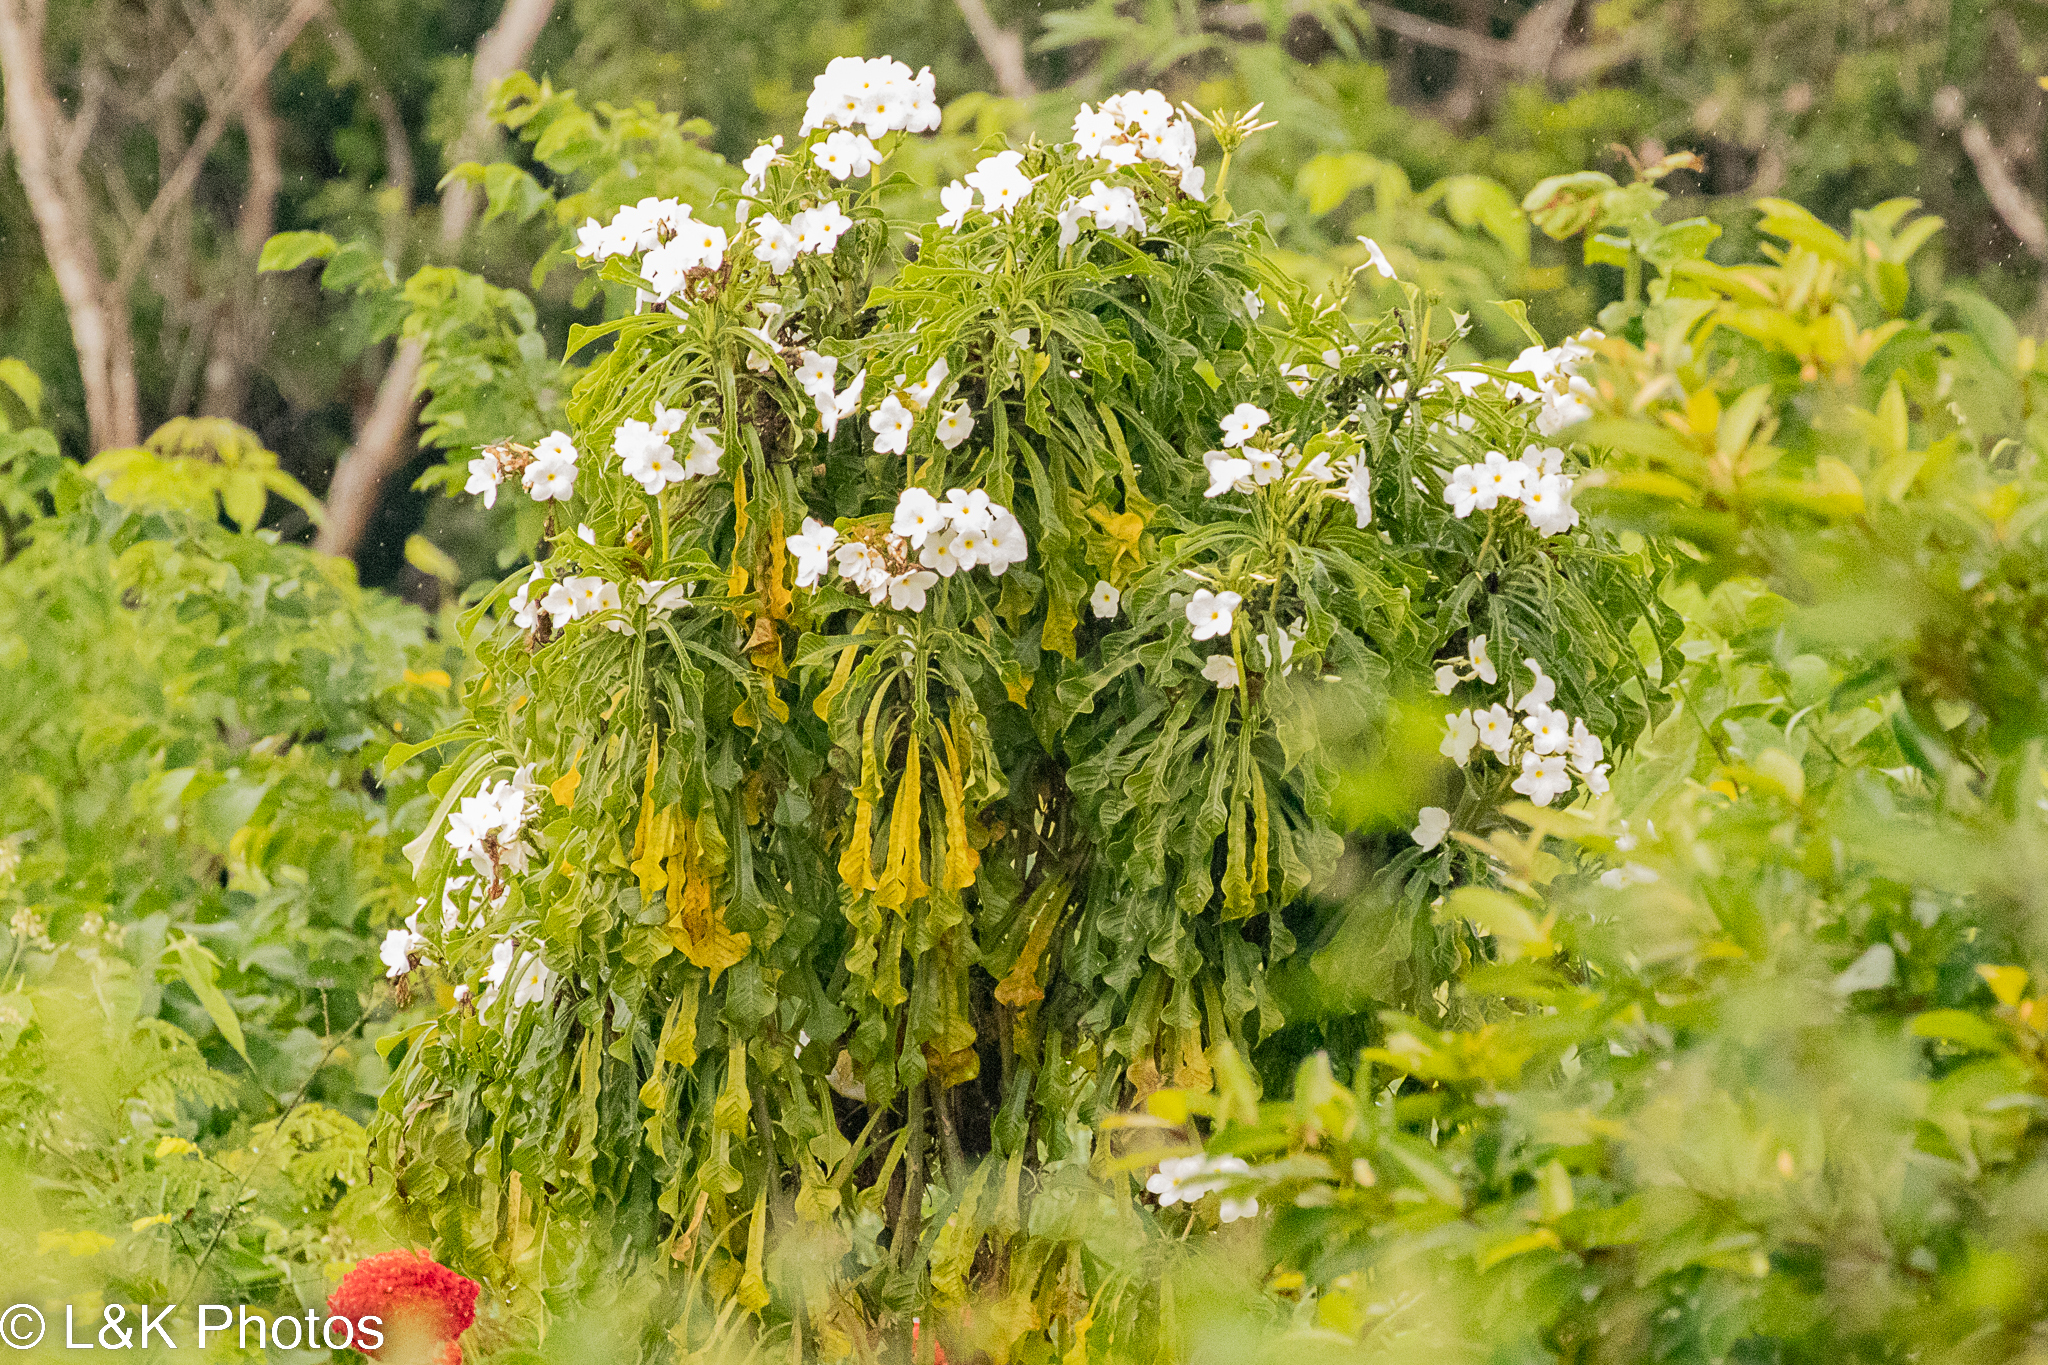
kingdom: Plantae
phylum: Tracheophyta
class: Magnoliopsida
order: Gentianales
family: Apocynaceae
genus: Plumeria
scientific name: Plumeria pudica
